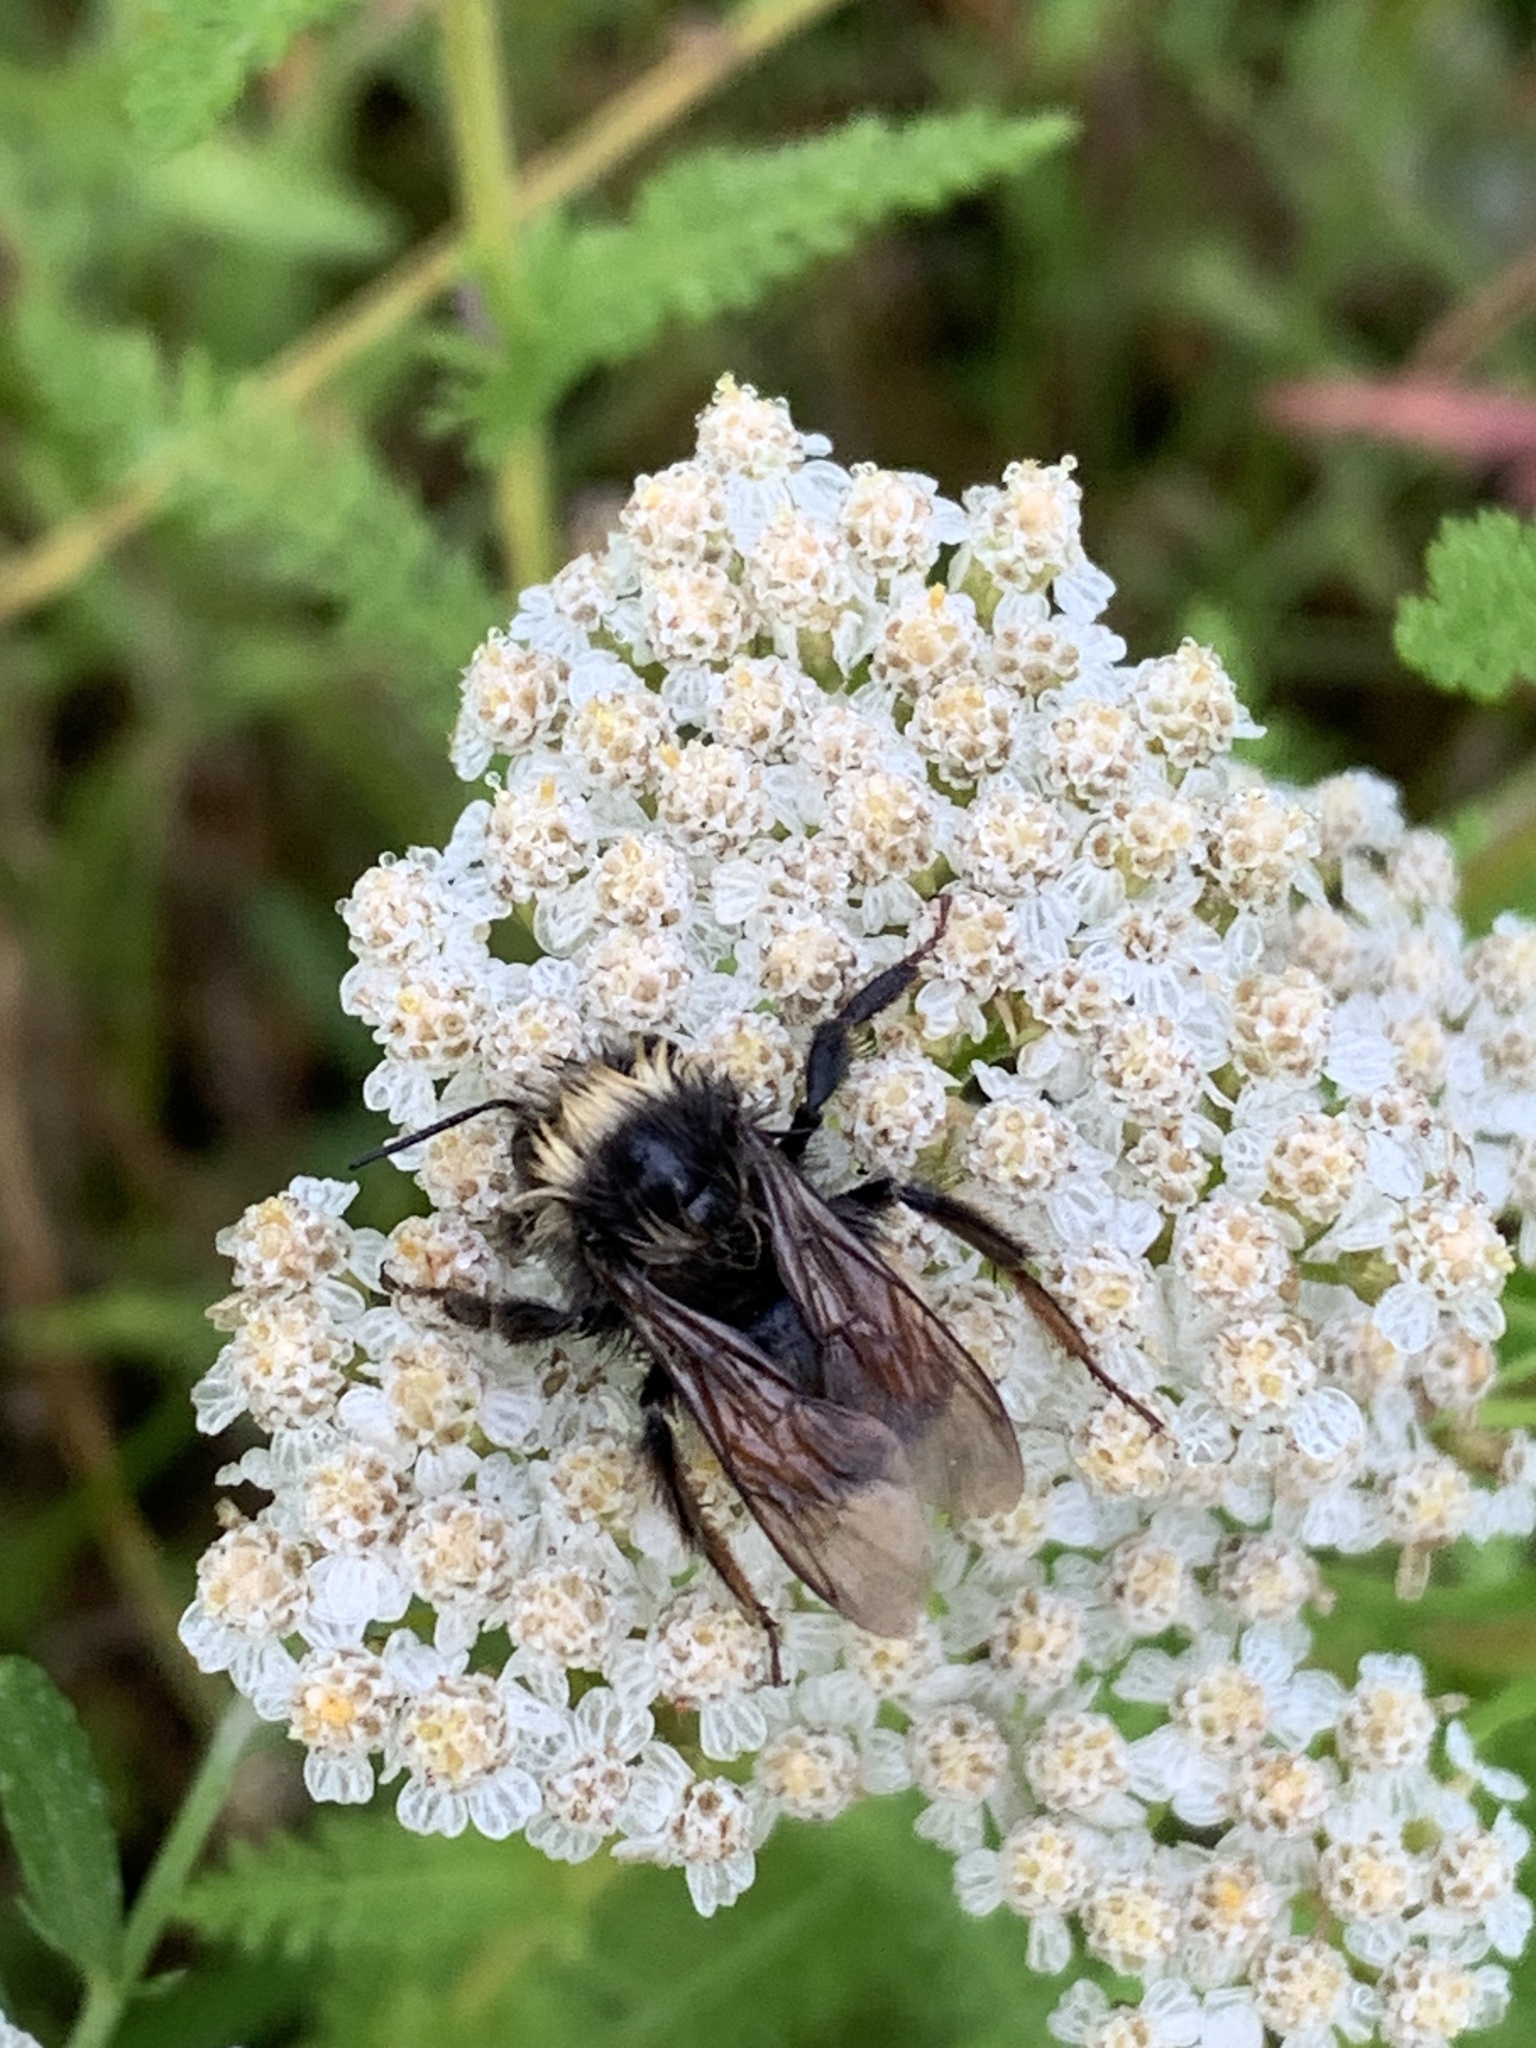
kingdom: Animalia
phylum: Arthropoda
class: Insecta
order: Hymenoptera
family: Apidae
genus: Bombus
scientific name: Bombus terricola
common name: Yellow-banded bumble bee
